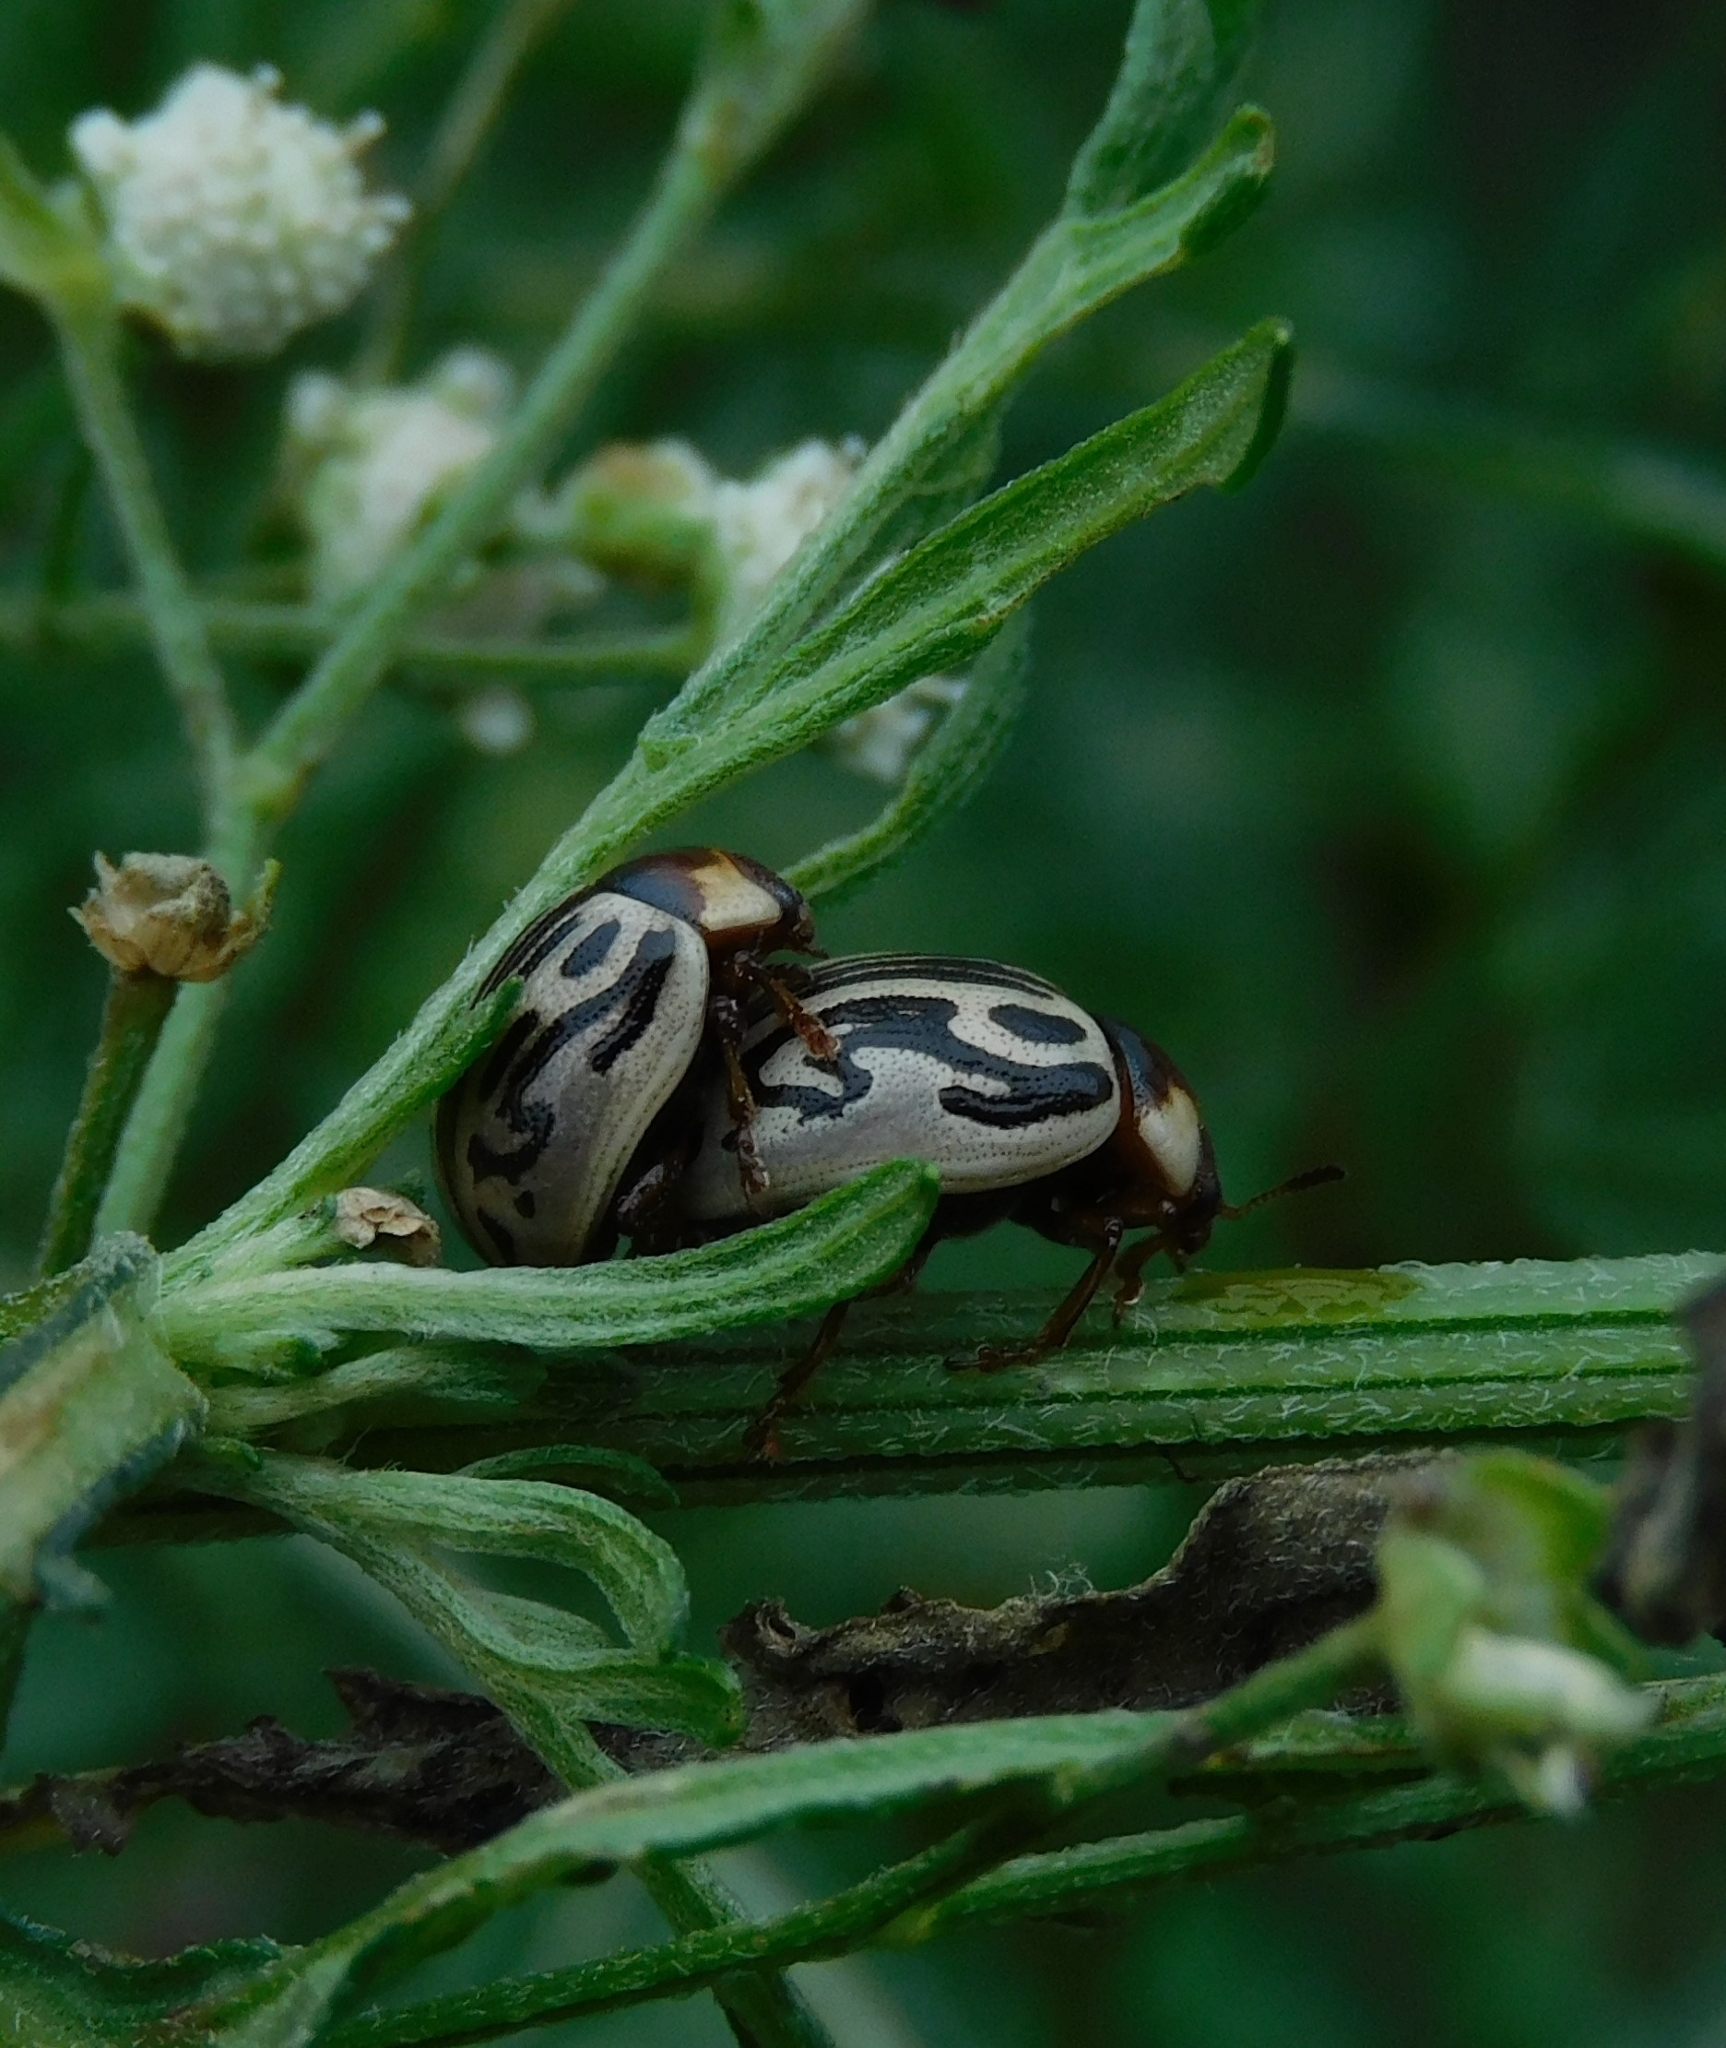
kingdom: Animalia
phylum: Arthropoda
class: Insecta
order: Coleoptera
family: Chrysomelidae
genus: Calligrapha
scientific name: Calligrapha
